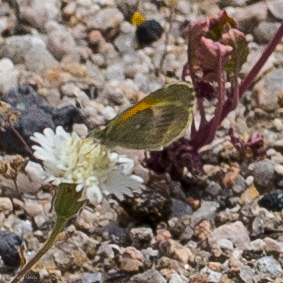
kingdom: Animalia
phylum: Arthropoda
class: Insecta
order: Lepidoptera
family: Pieridae
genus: Nathalis
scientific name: Nathalis iole
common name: Dainty sulphur
